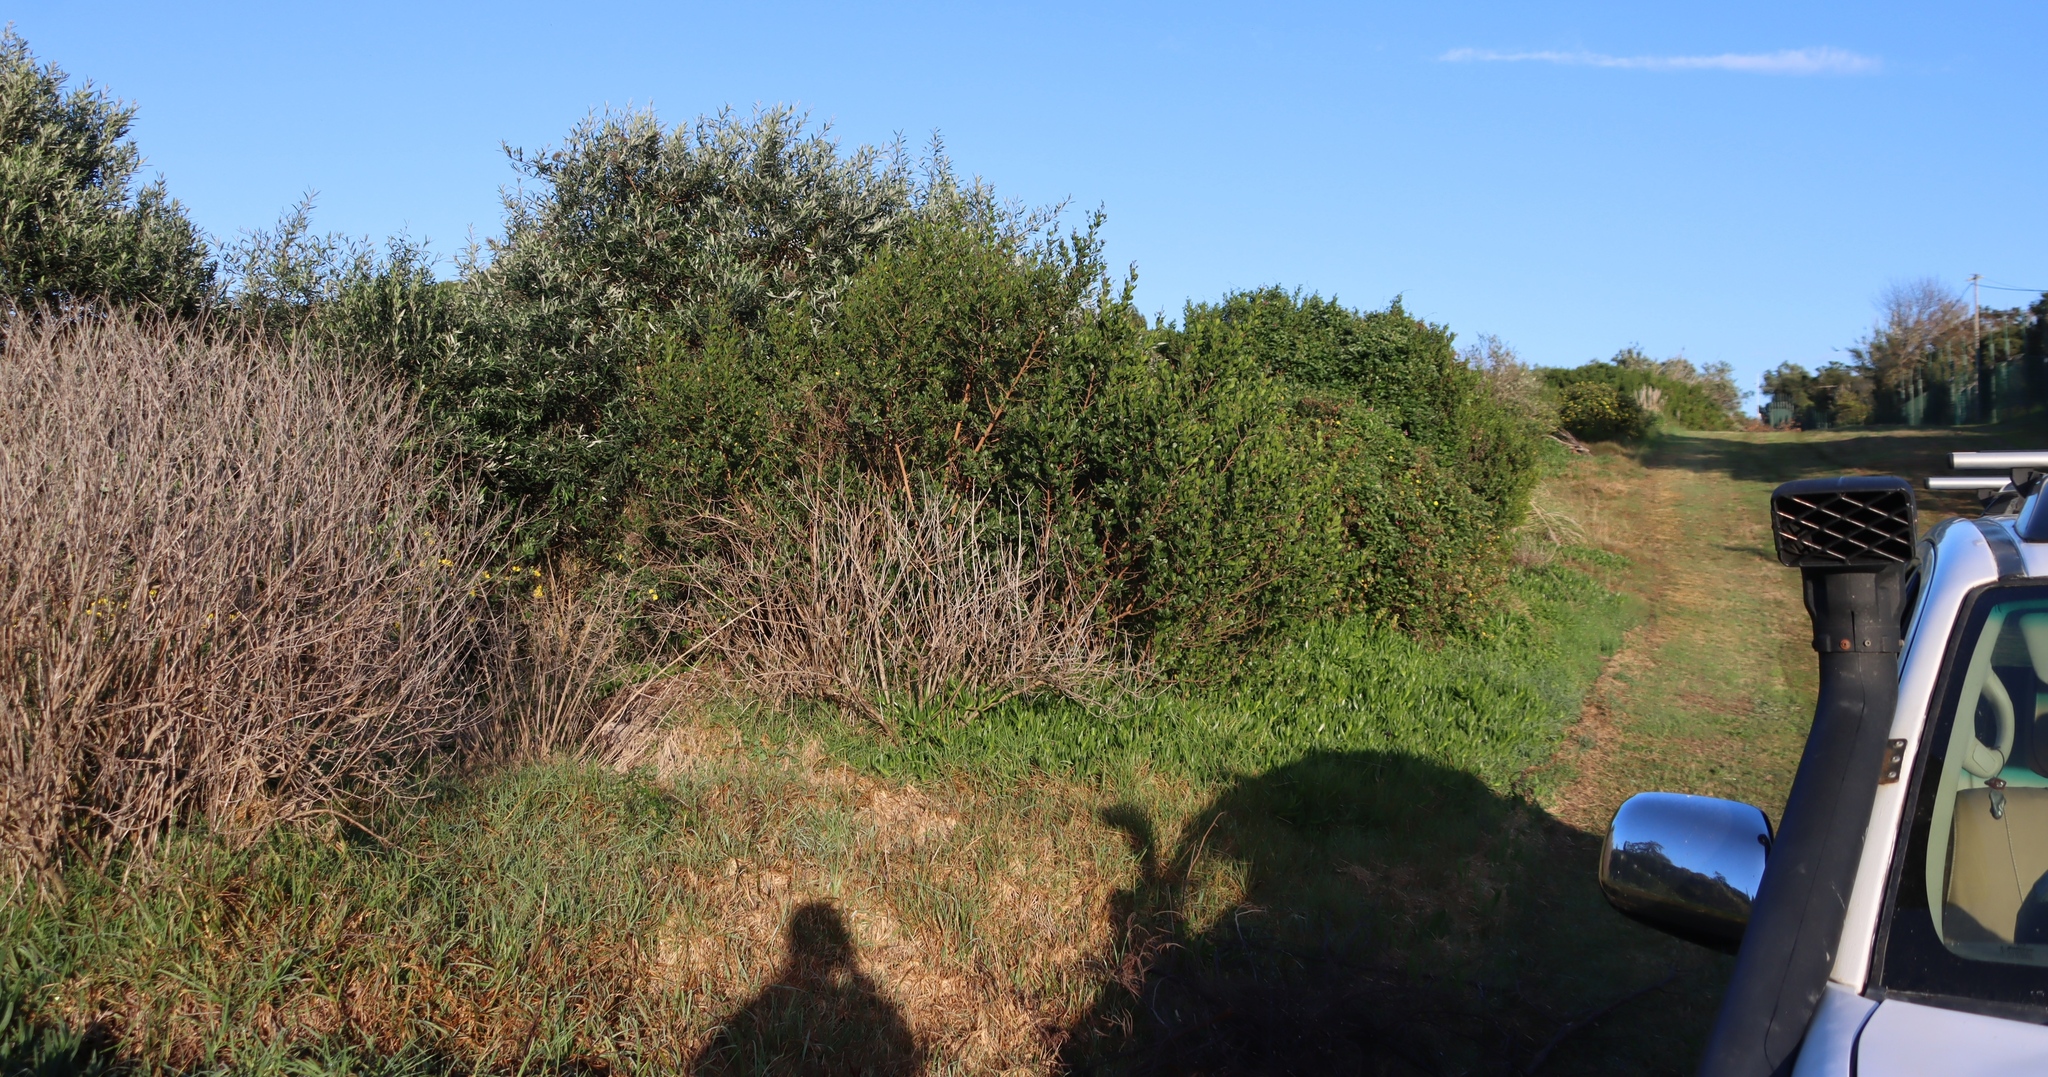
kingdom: Plantae
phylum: Tracheophyta
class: Magnoliopsida
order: Lamiales
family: Scrophulariaceae
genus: Buddleja
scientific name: Buddleja saligna
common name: False olive
